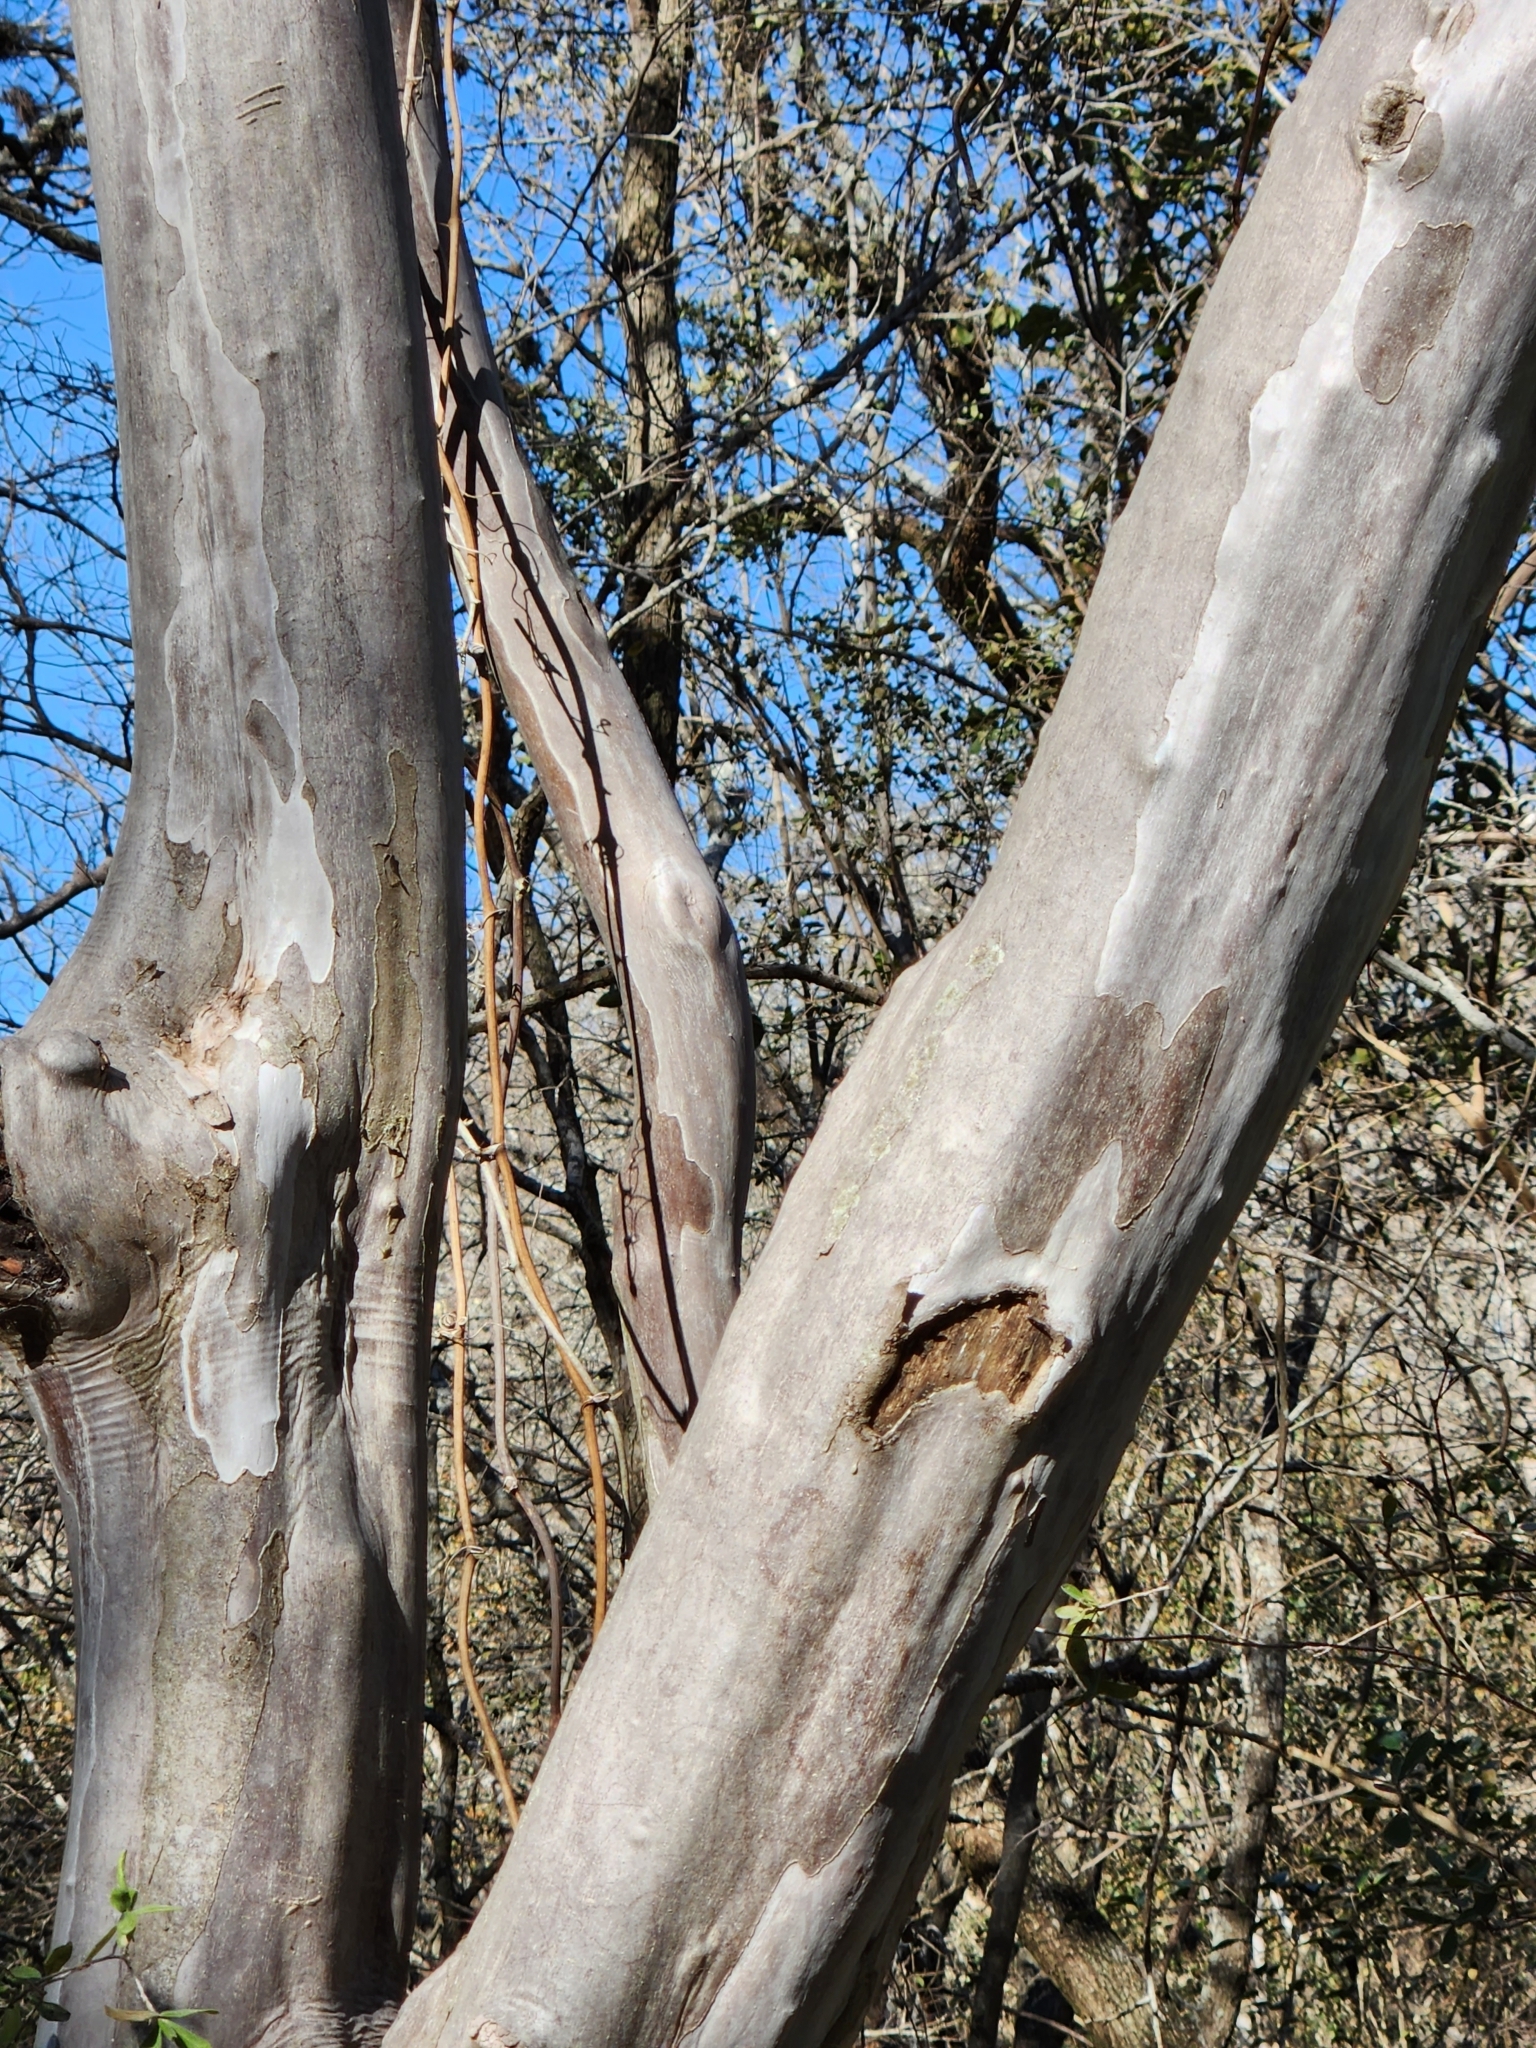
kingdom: Plantae
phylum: Tracheophyta
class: Magnoliopsida
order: Ericales
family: Ebenaceae
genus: Diospyros
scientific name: Diospyros texana
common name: Texas persimmon
